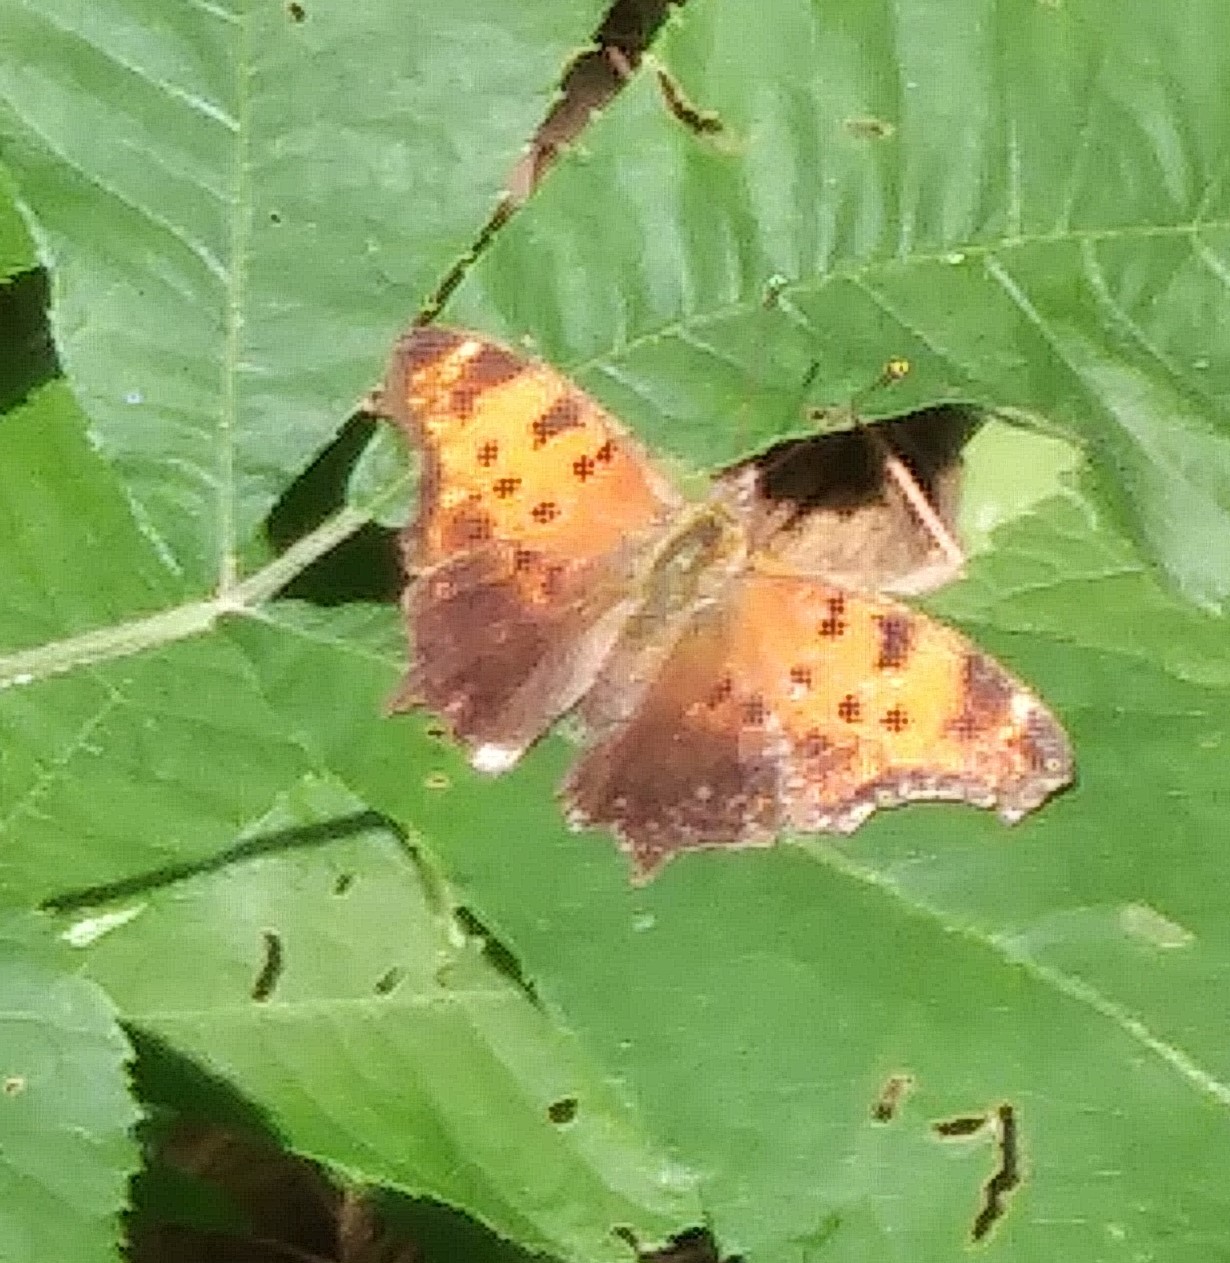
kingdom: Animalia
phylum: Arthropoda
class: Insecta
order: Lepidoptera
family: Nymphalidae
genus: Polygonia
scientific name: Polygonia comma
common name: Eastern comma
